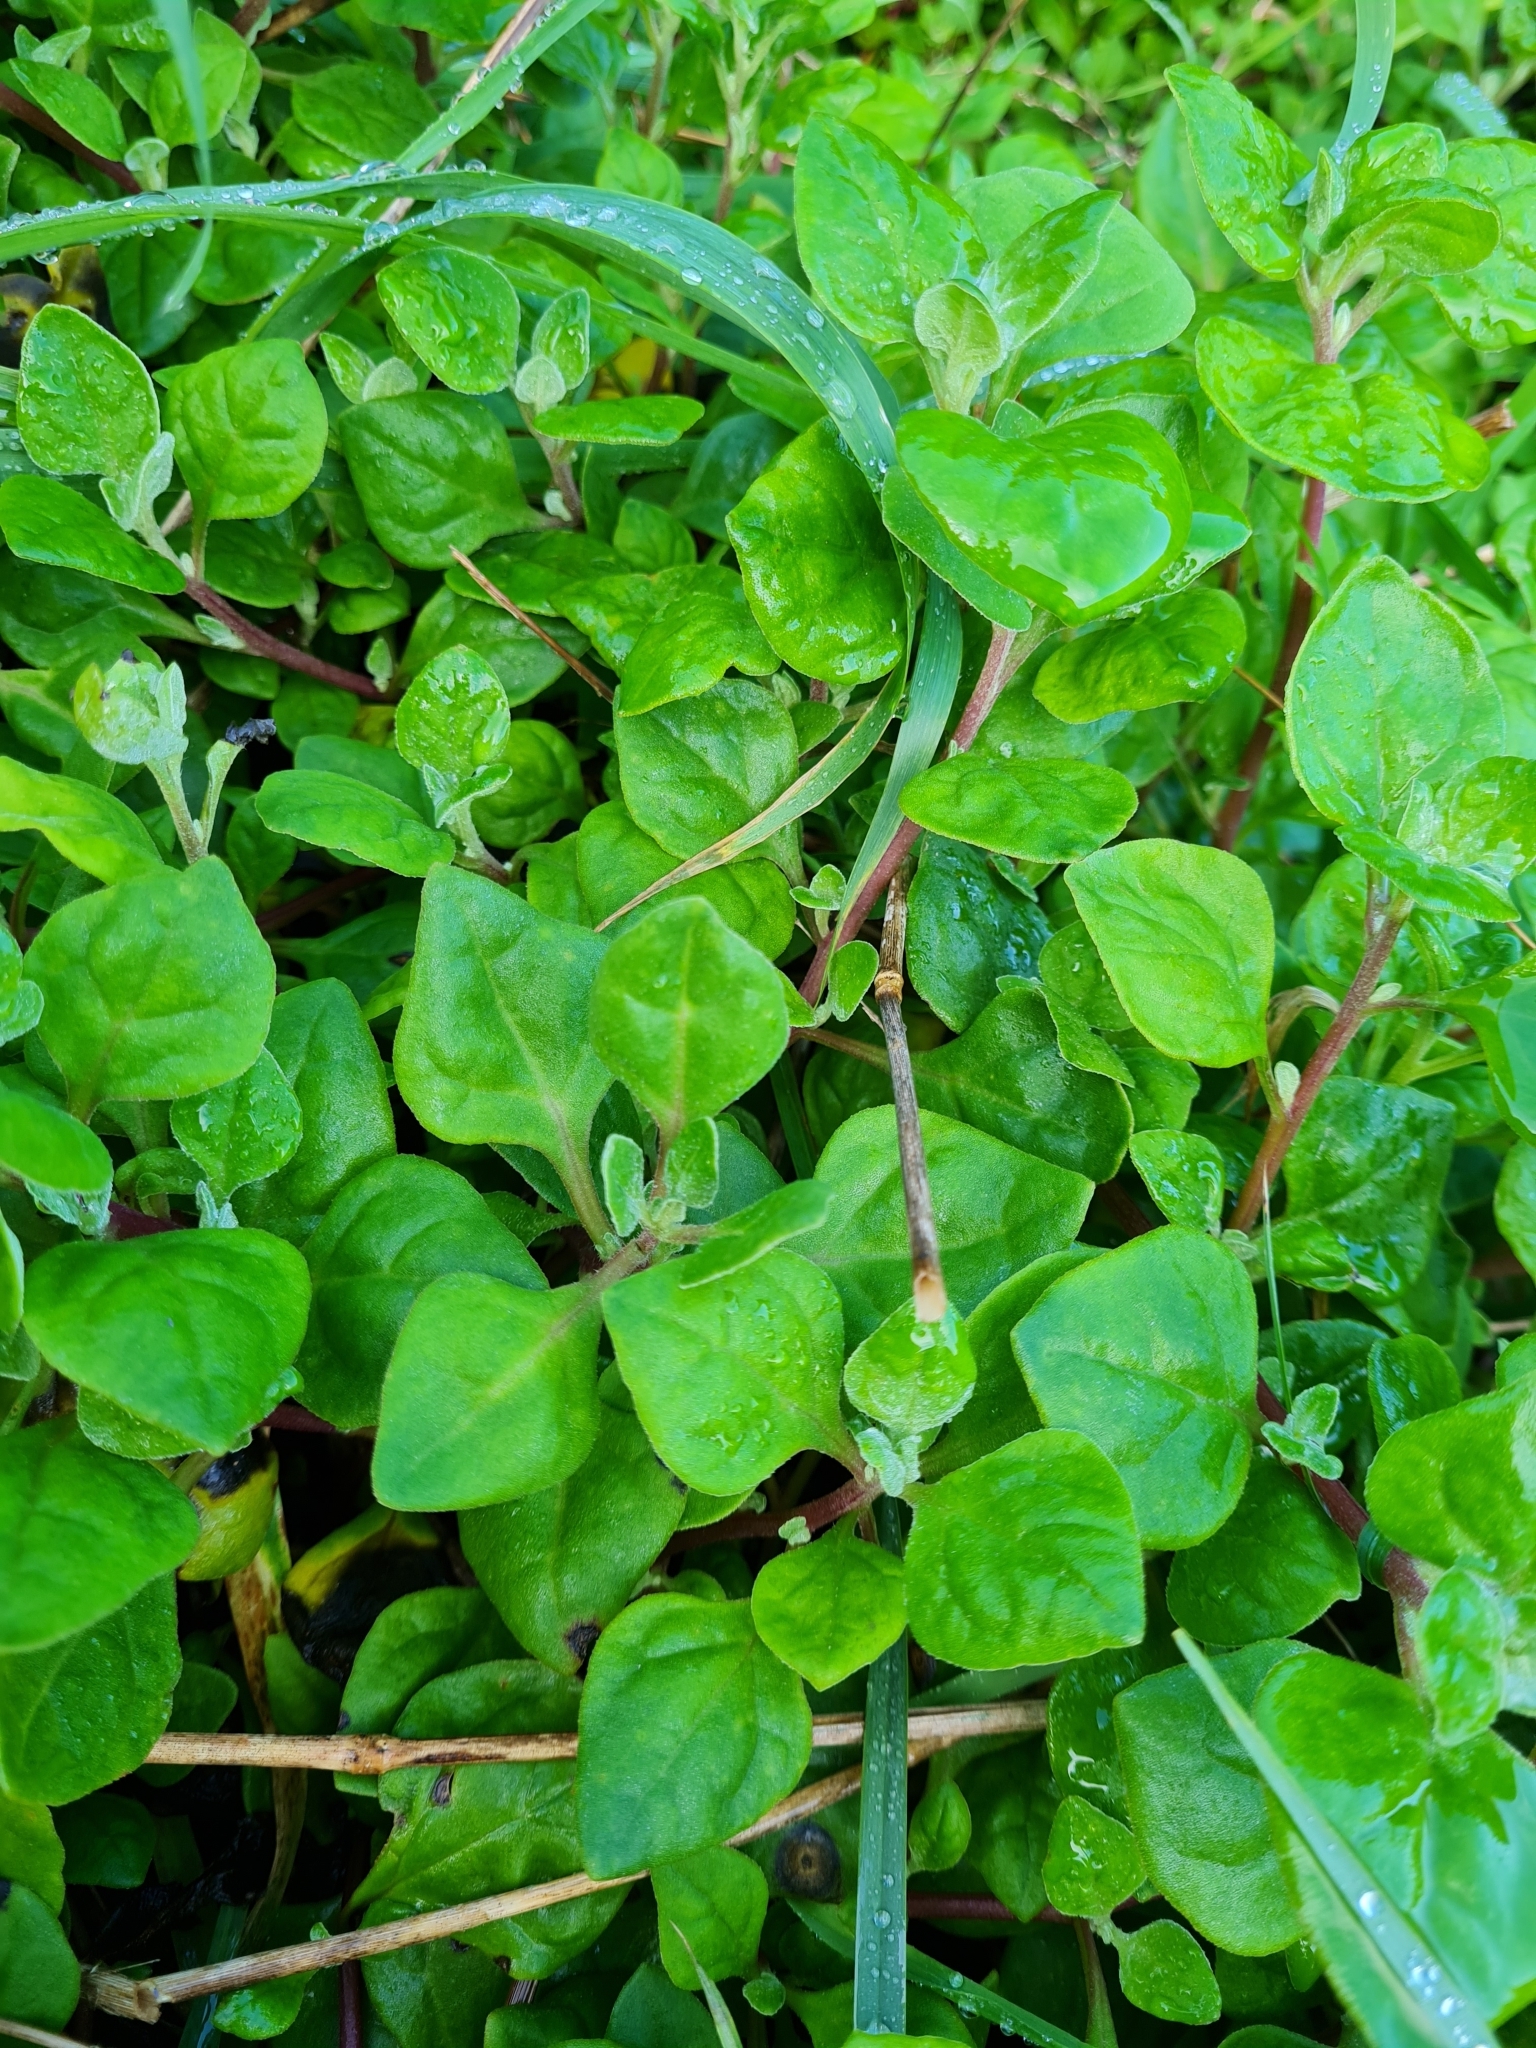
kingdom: Plantae
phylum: Tracheophyta
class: Magnoliopsida
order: Caryophyllales
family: Aizoaceae
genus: Tetragonia
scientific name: Tetragonia implexicoma
